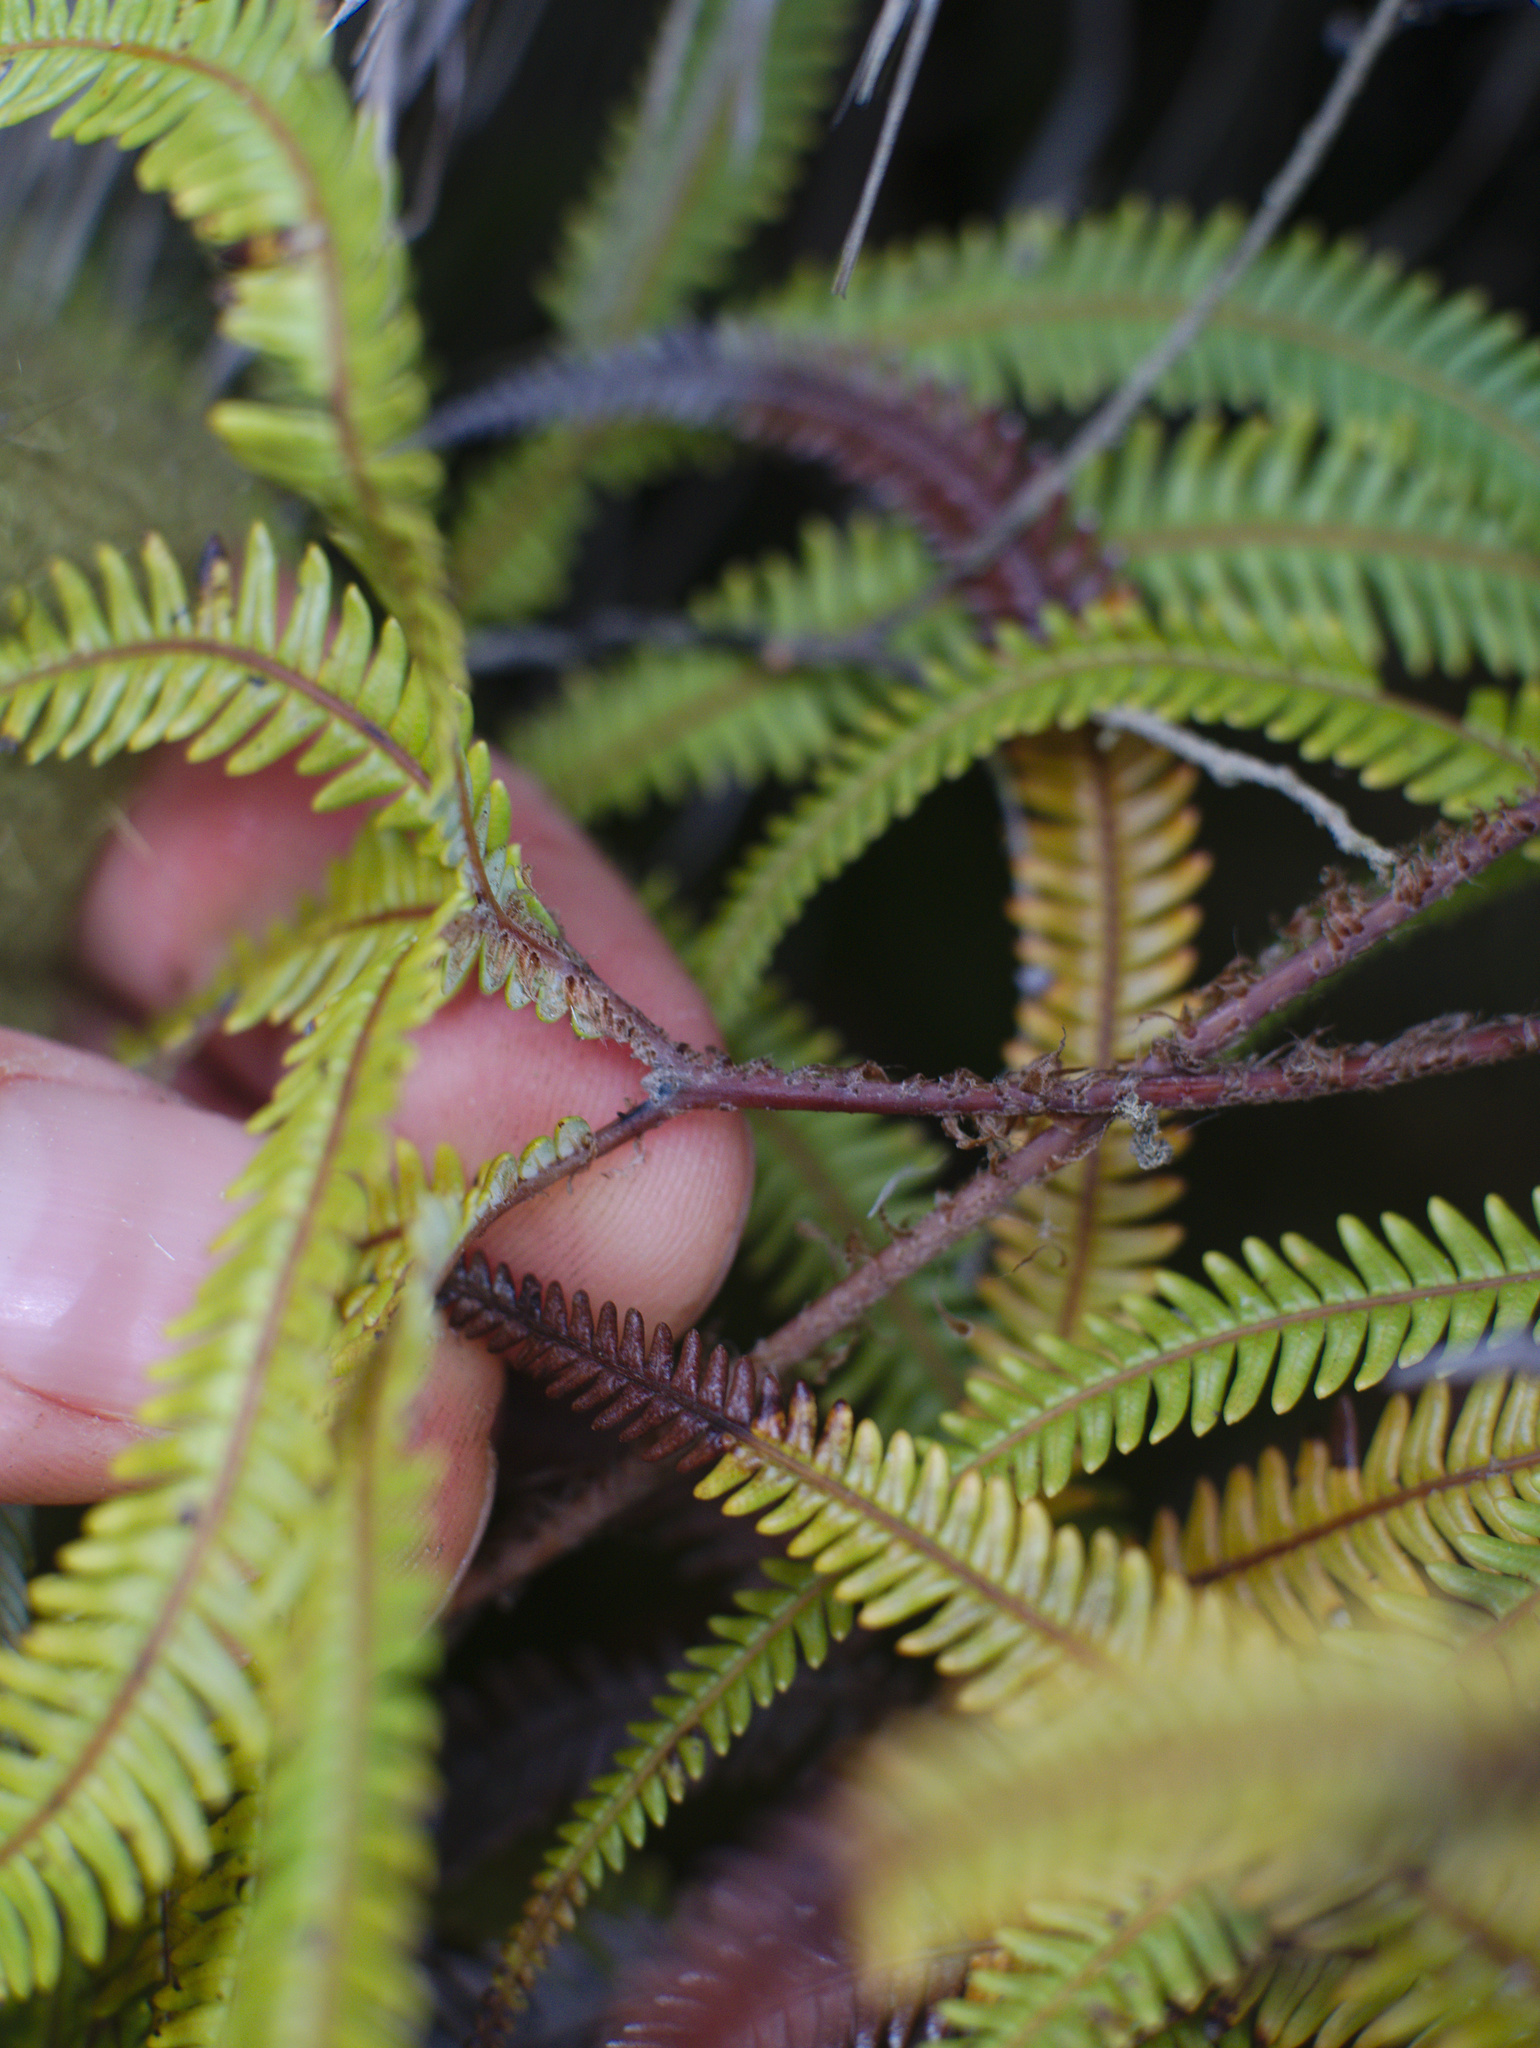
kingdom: Plantae
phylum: Tracheophyta
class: Polypodiopsida
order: Gleicheniales
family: Gleicheniaceae
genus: Sticherus
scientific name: Sticherus cunninghamii
